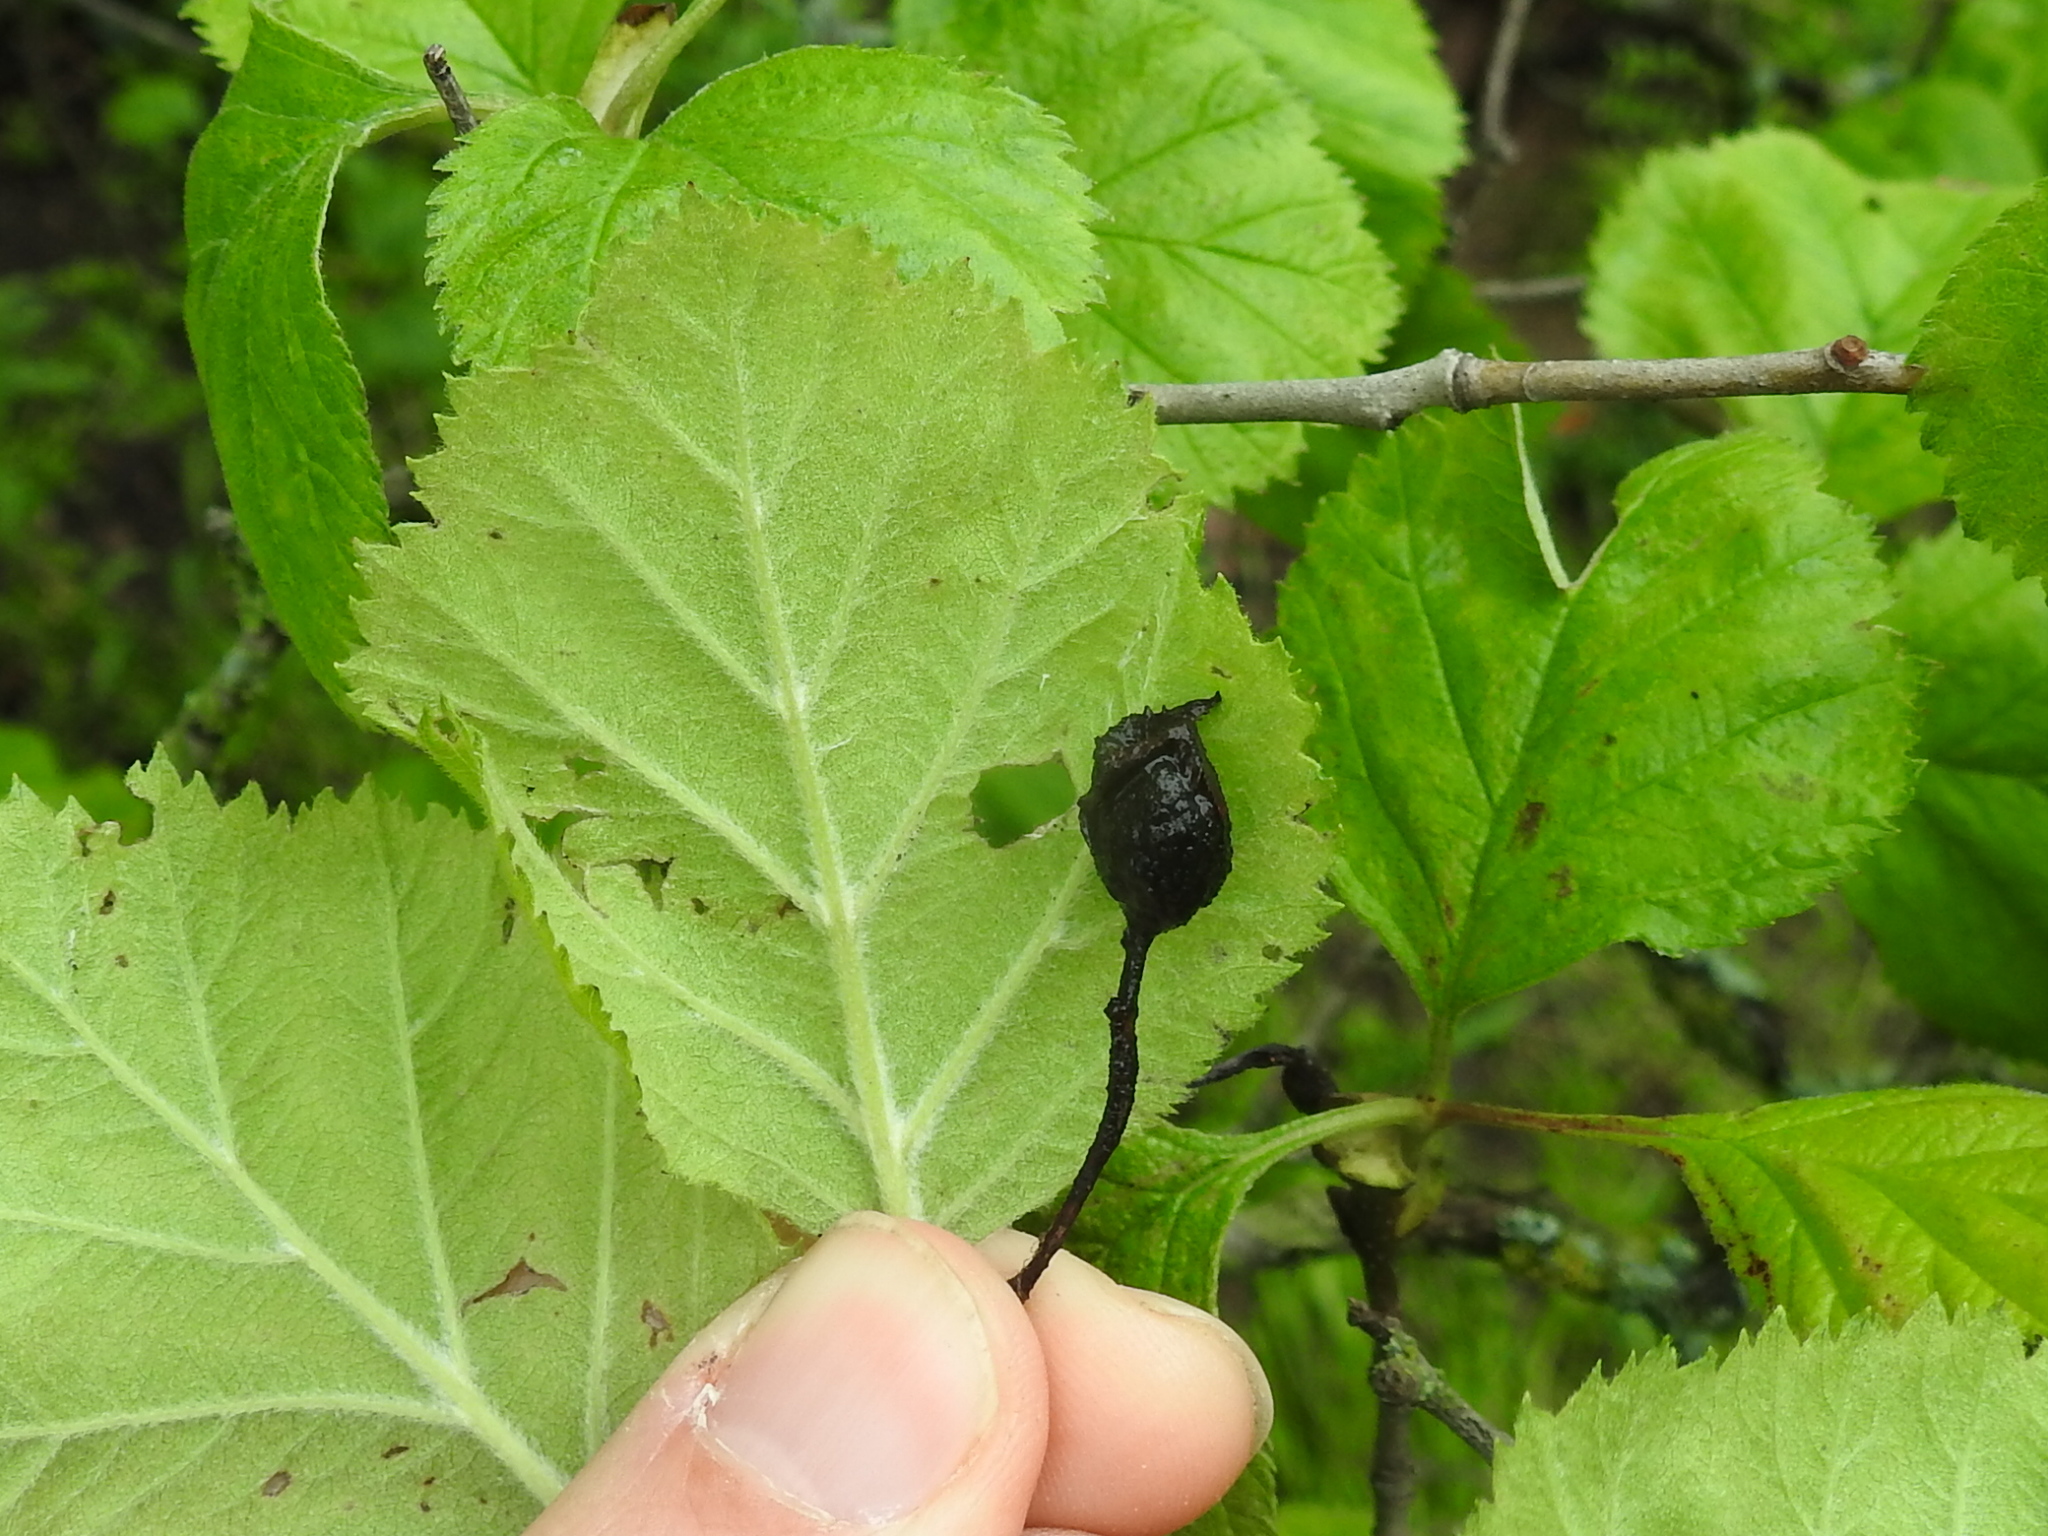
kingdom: Plantae
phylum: Tracheophyta
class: Magnoliopsida
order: Rosales
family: Rosaceae
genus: Crataegus
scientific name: Crataegus mollis
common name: Downy hawthorn
